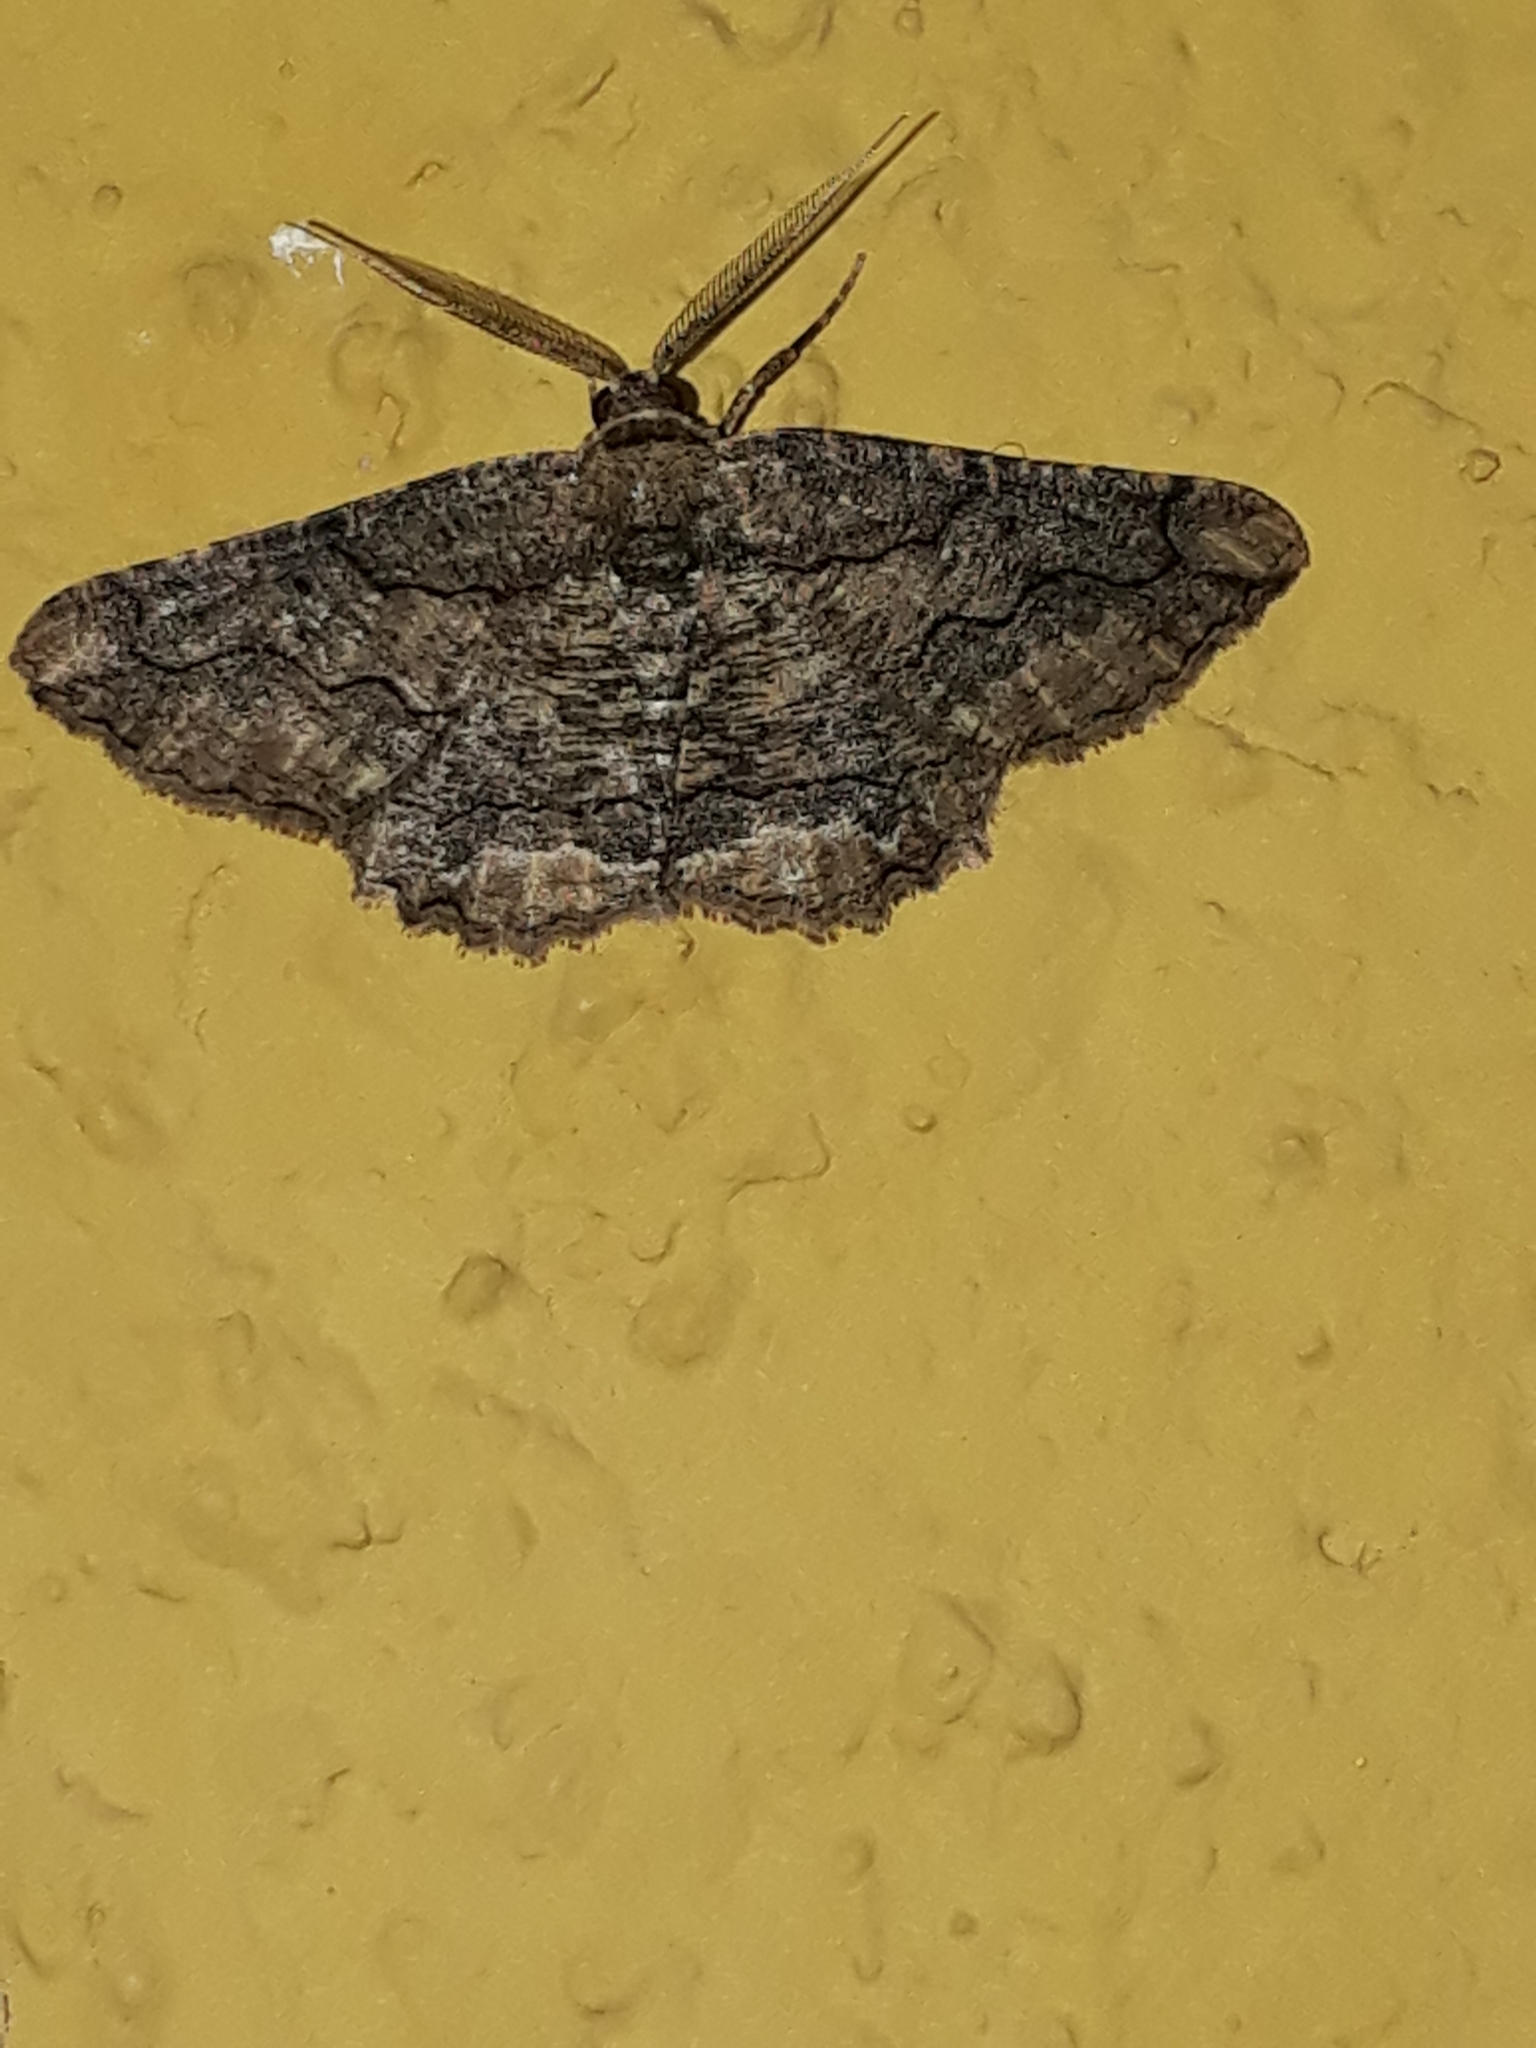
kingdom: Animalia
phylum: Arthropoda
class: Insecta
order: Lepidoptera
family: Geometridae
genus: Menophra
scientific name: Menophra japygiaria
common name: Brassy waved umber
